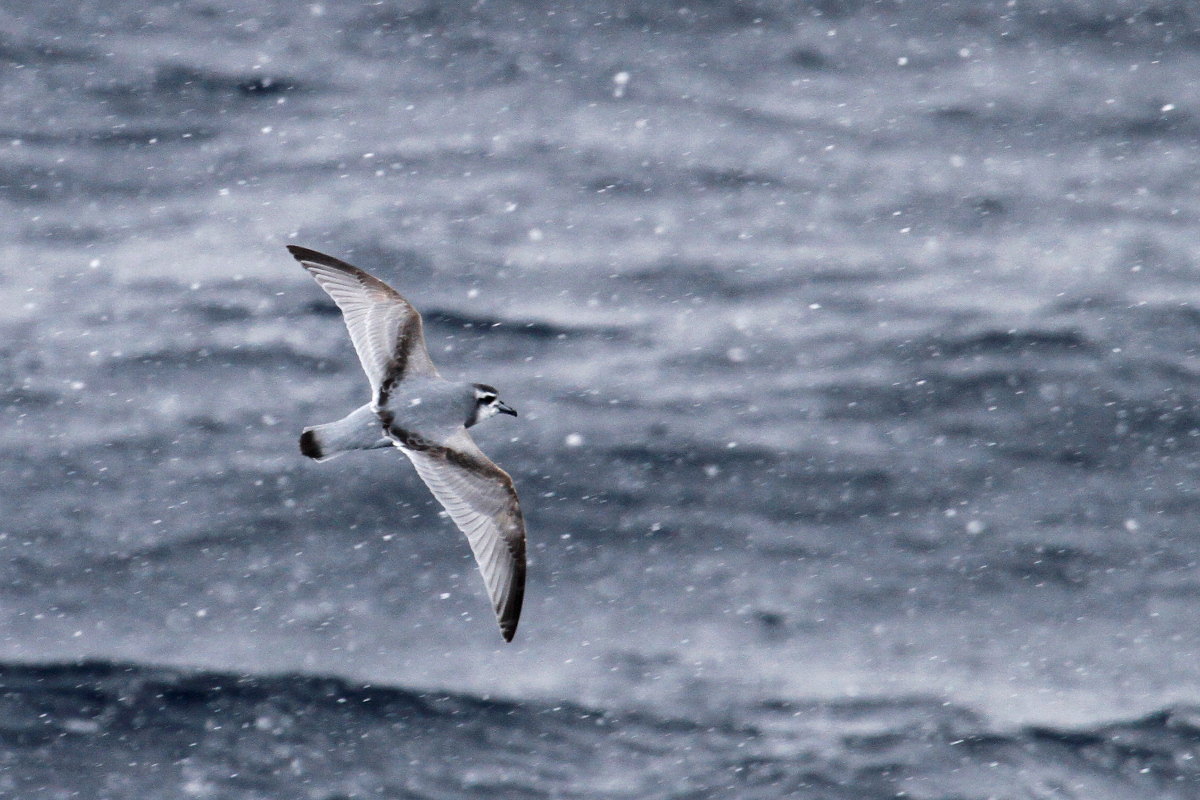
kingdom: Animalia
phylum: Chordata
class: Aves
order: Procellariiformes
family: Procellariidae
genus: Pachyptila
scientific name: Pachyptila desolata
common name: Antarctic prion
